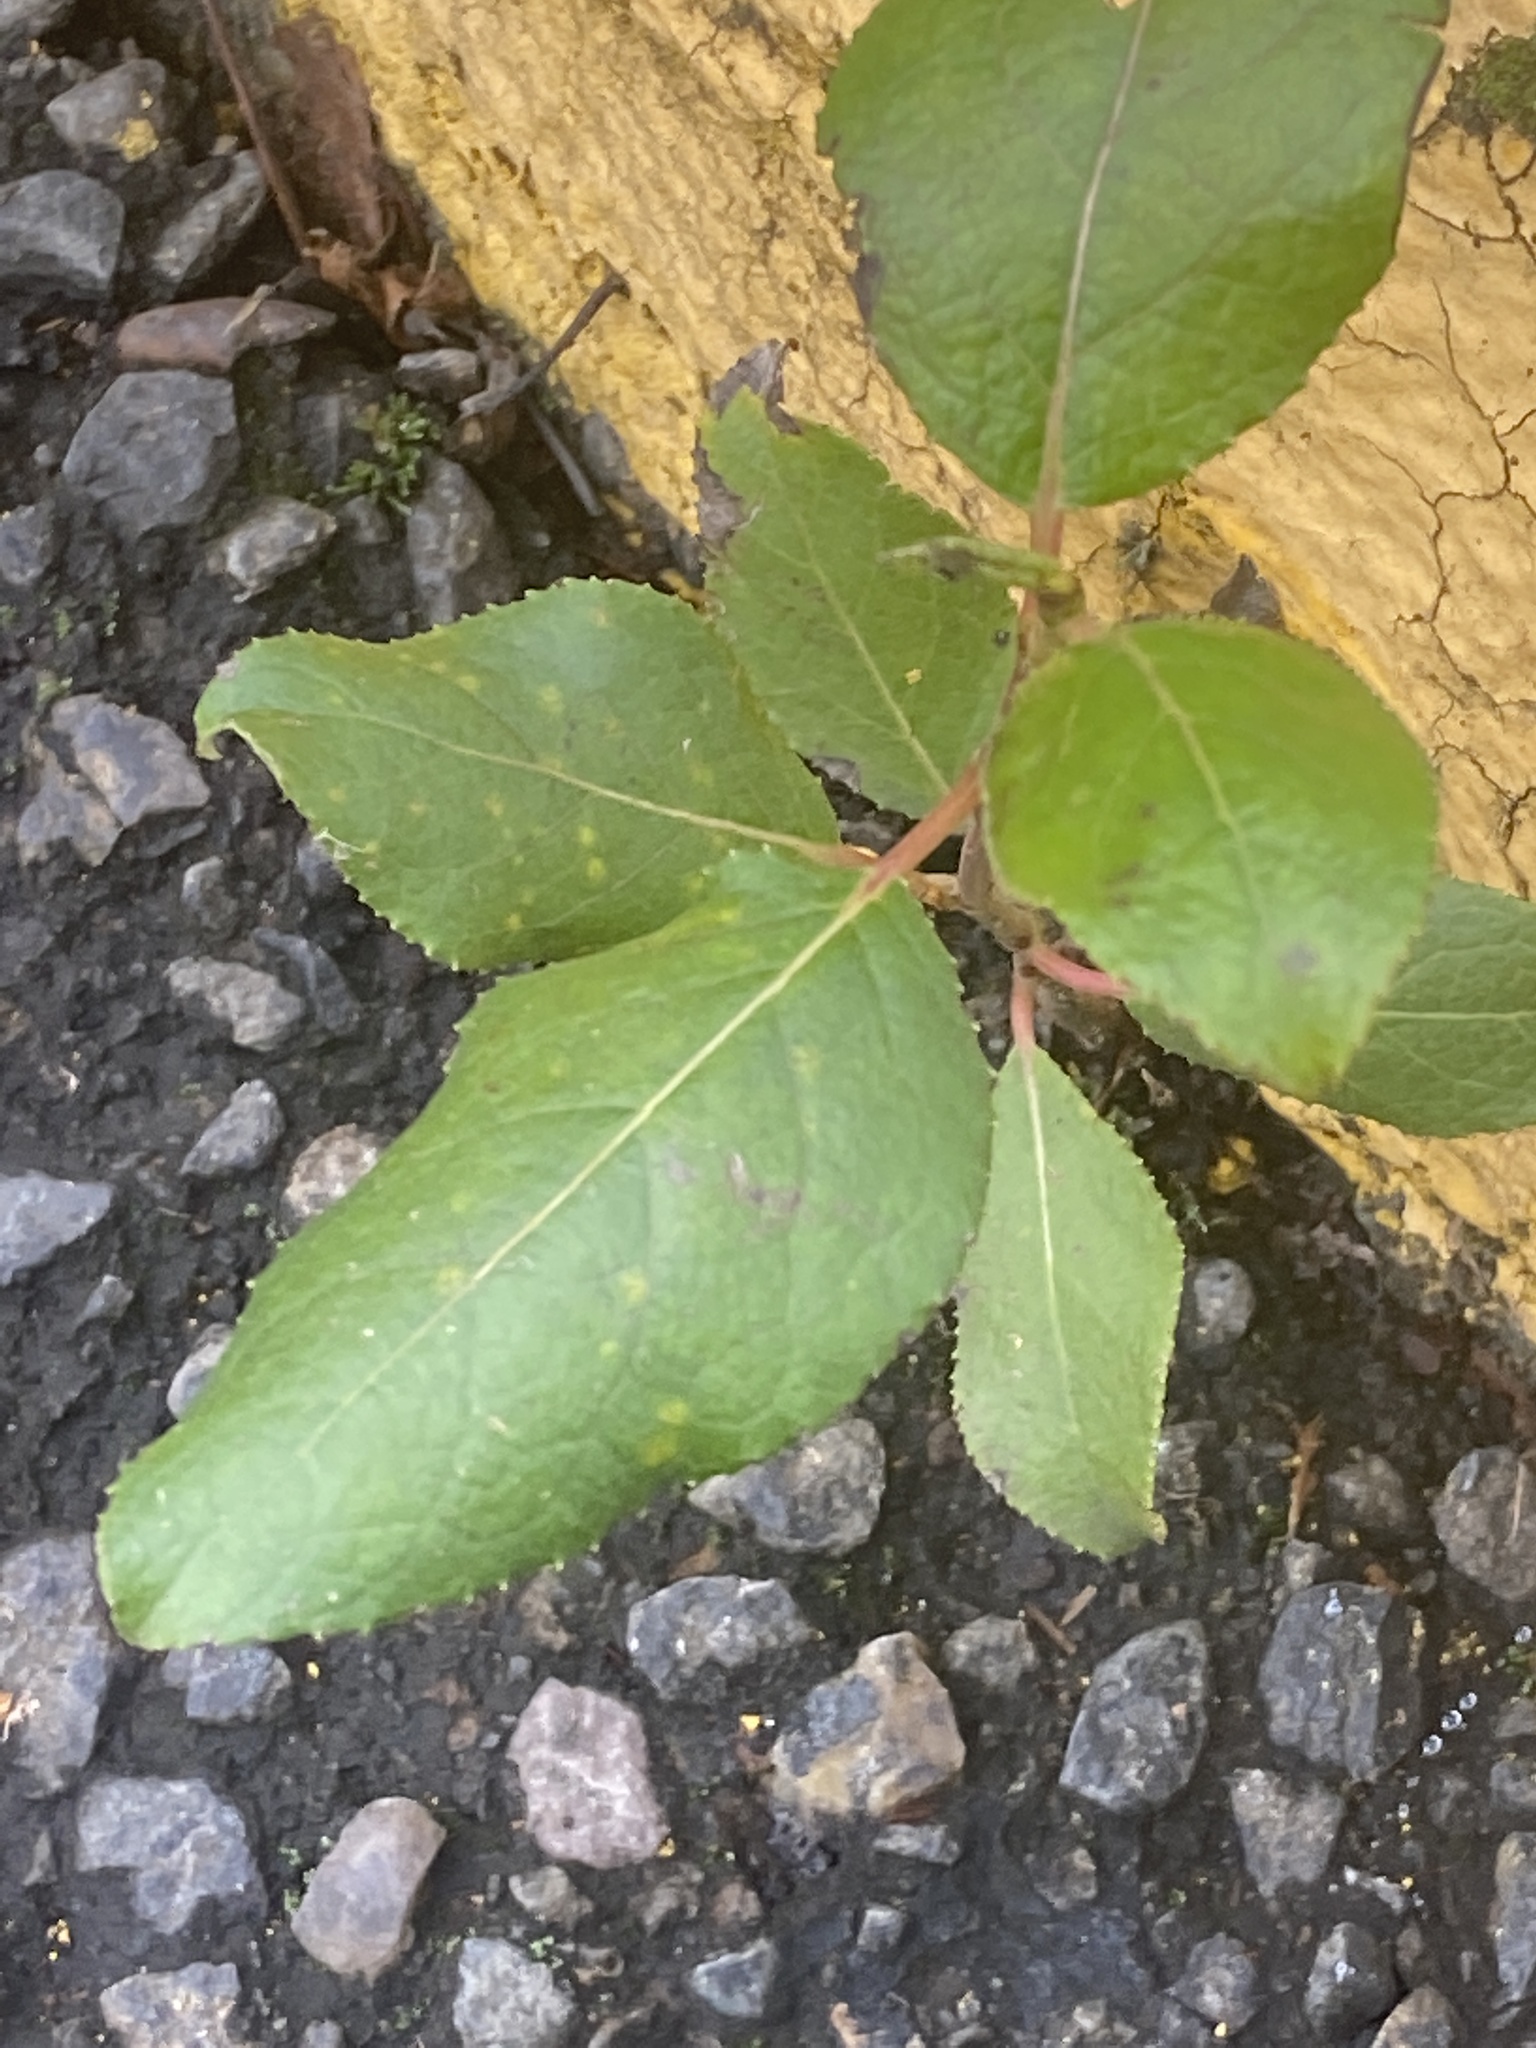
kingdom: Plantae
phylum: Tracheophyta
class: Magnoliopsida
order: Malpighiales
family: Salicaceae
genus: Populus
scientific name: Populus trichocarpa
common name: Black cottonwood
